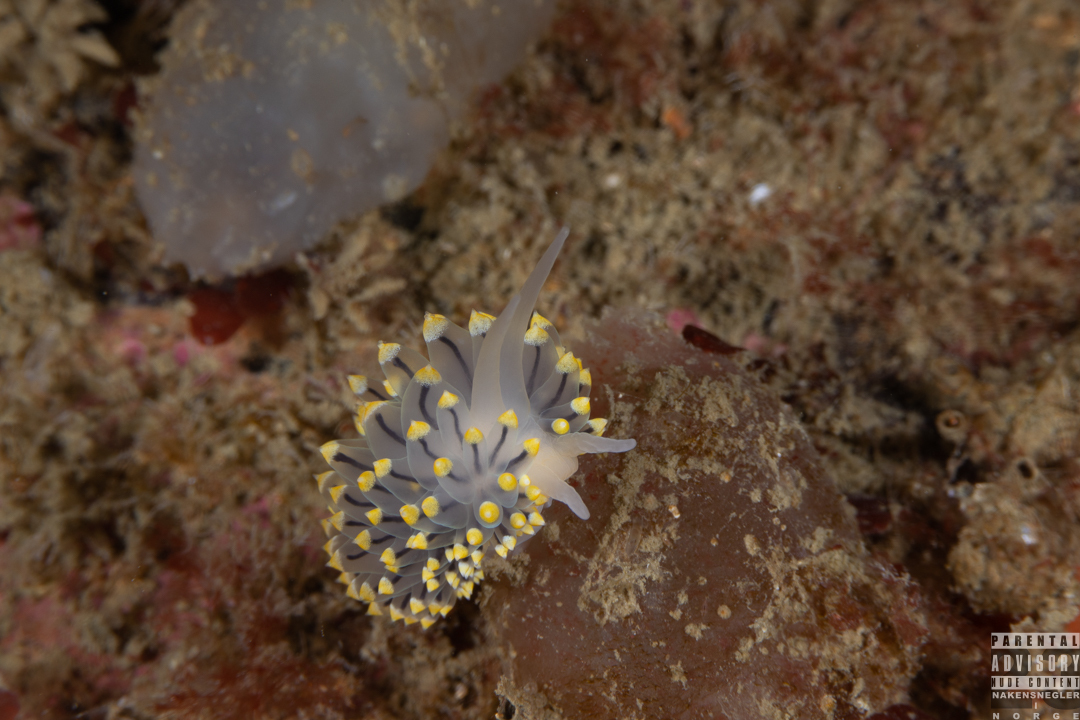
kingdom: Animalia
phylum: Mollusca
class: Gastropoda
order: Nudibranchia
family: Eubranchidae
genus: Eubranchus
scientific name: Eubranchus tricolor
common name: Painted balloon aeolis
